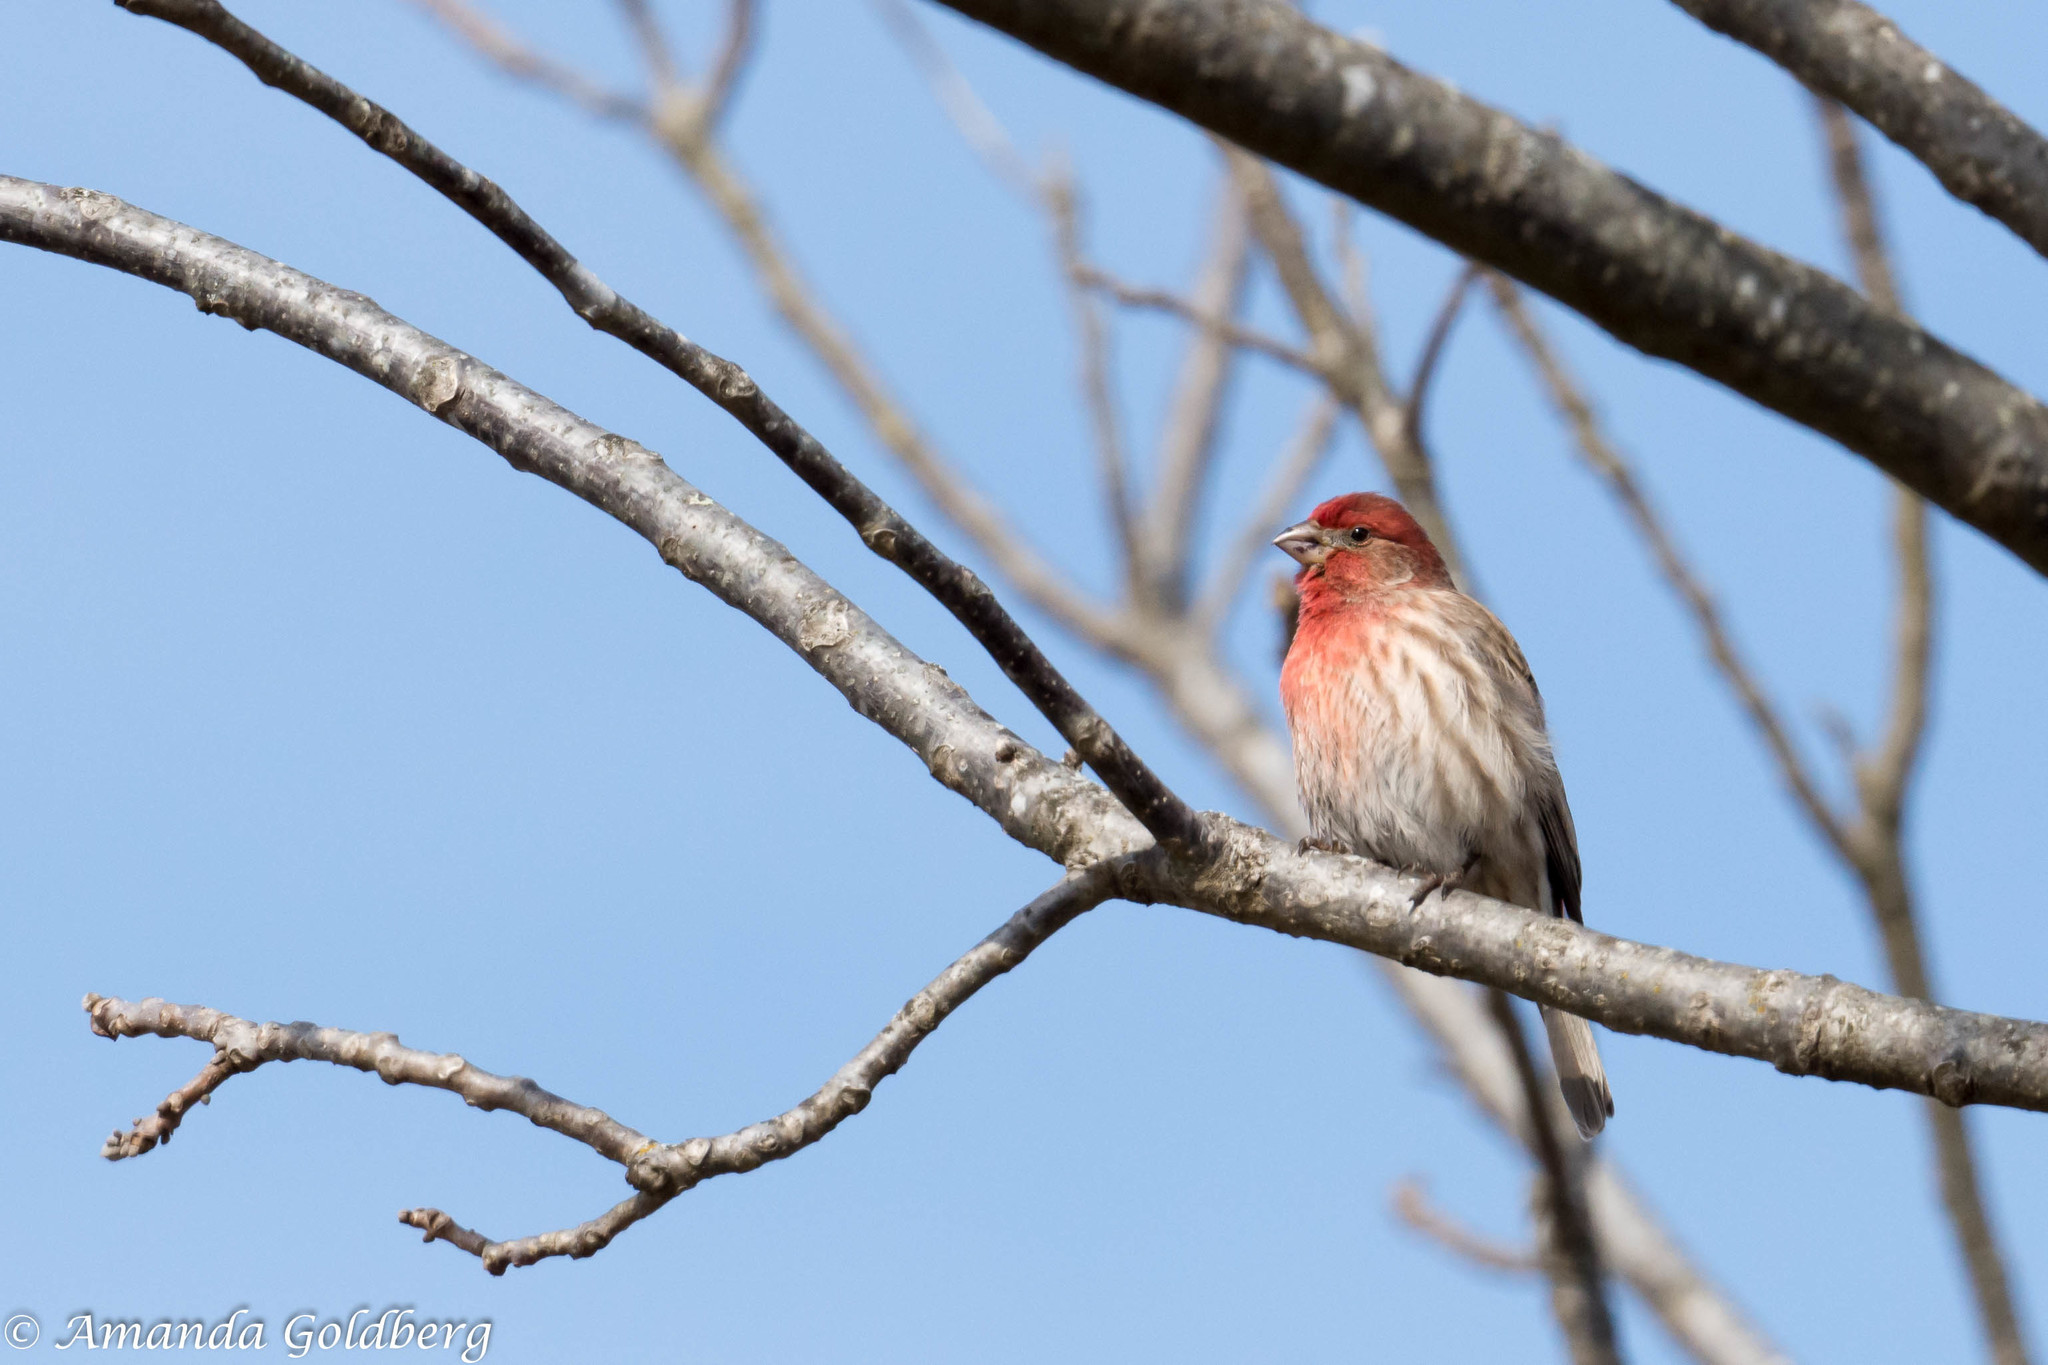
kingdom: Animalia
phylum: Chordata
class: Aves
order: Passeriformes
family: Fringillidae
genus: Haemorhous
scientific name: Haemorhous mexicanus
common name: House finch
